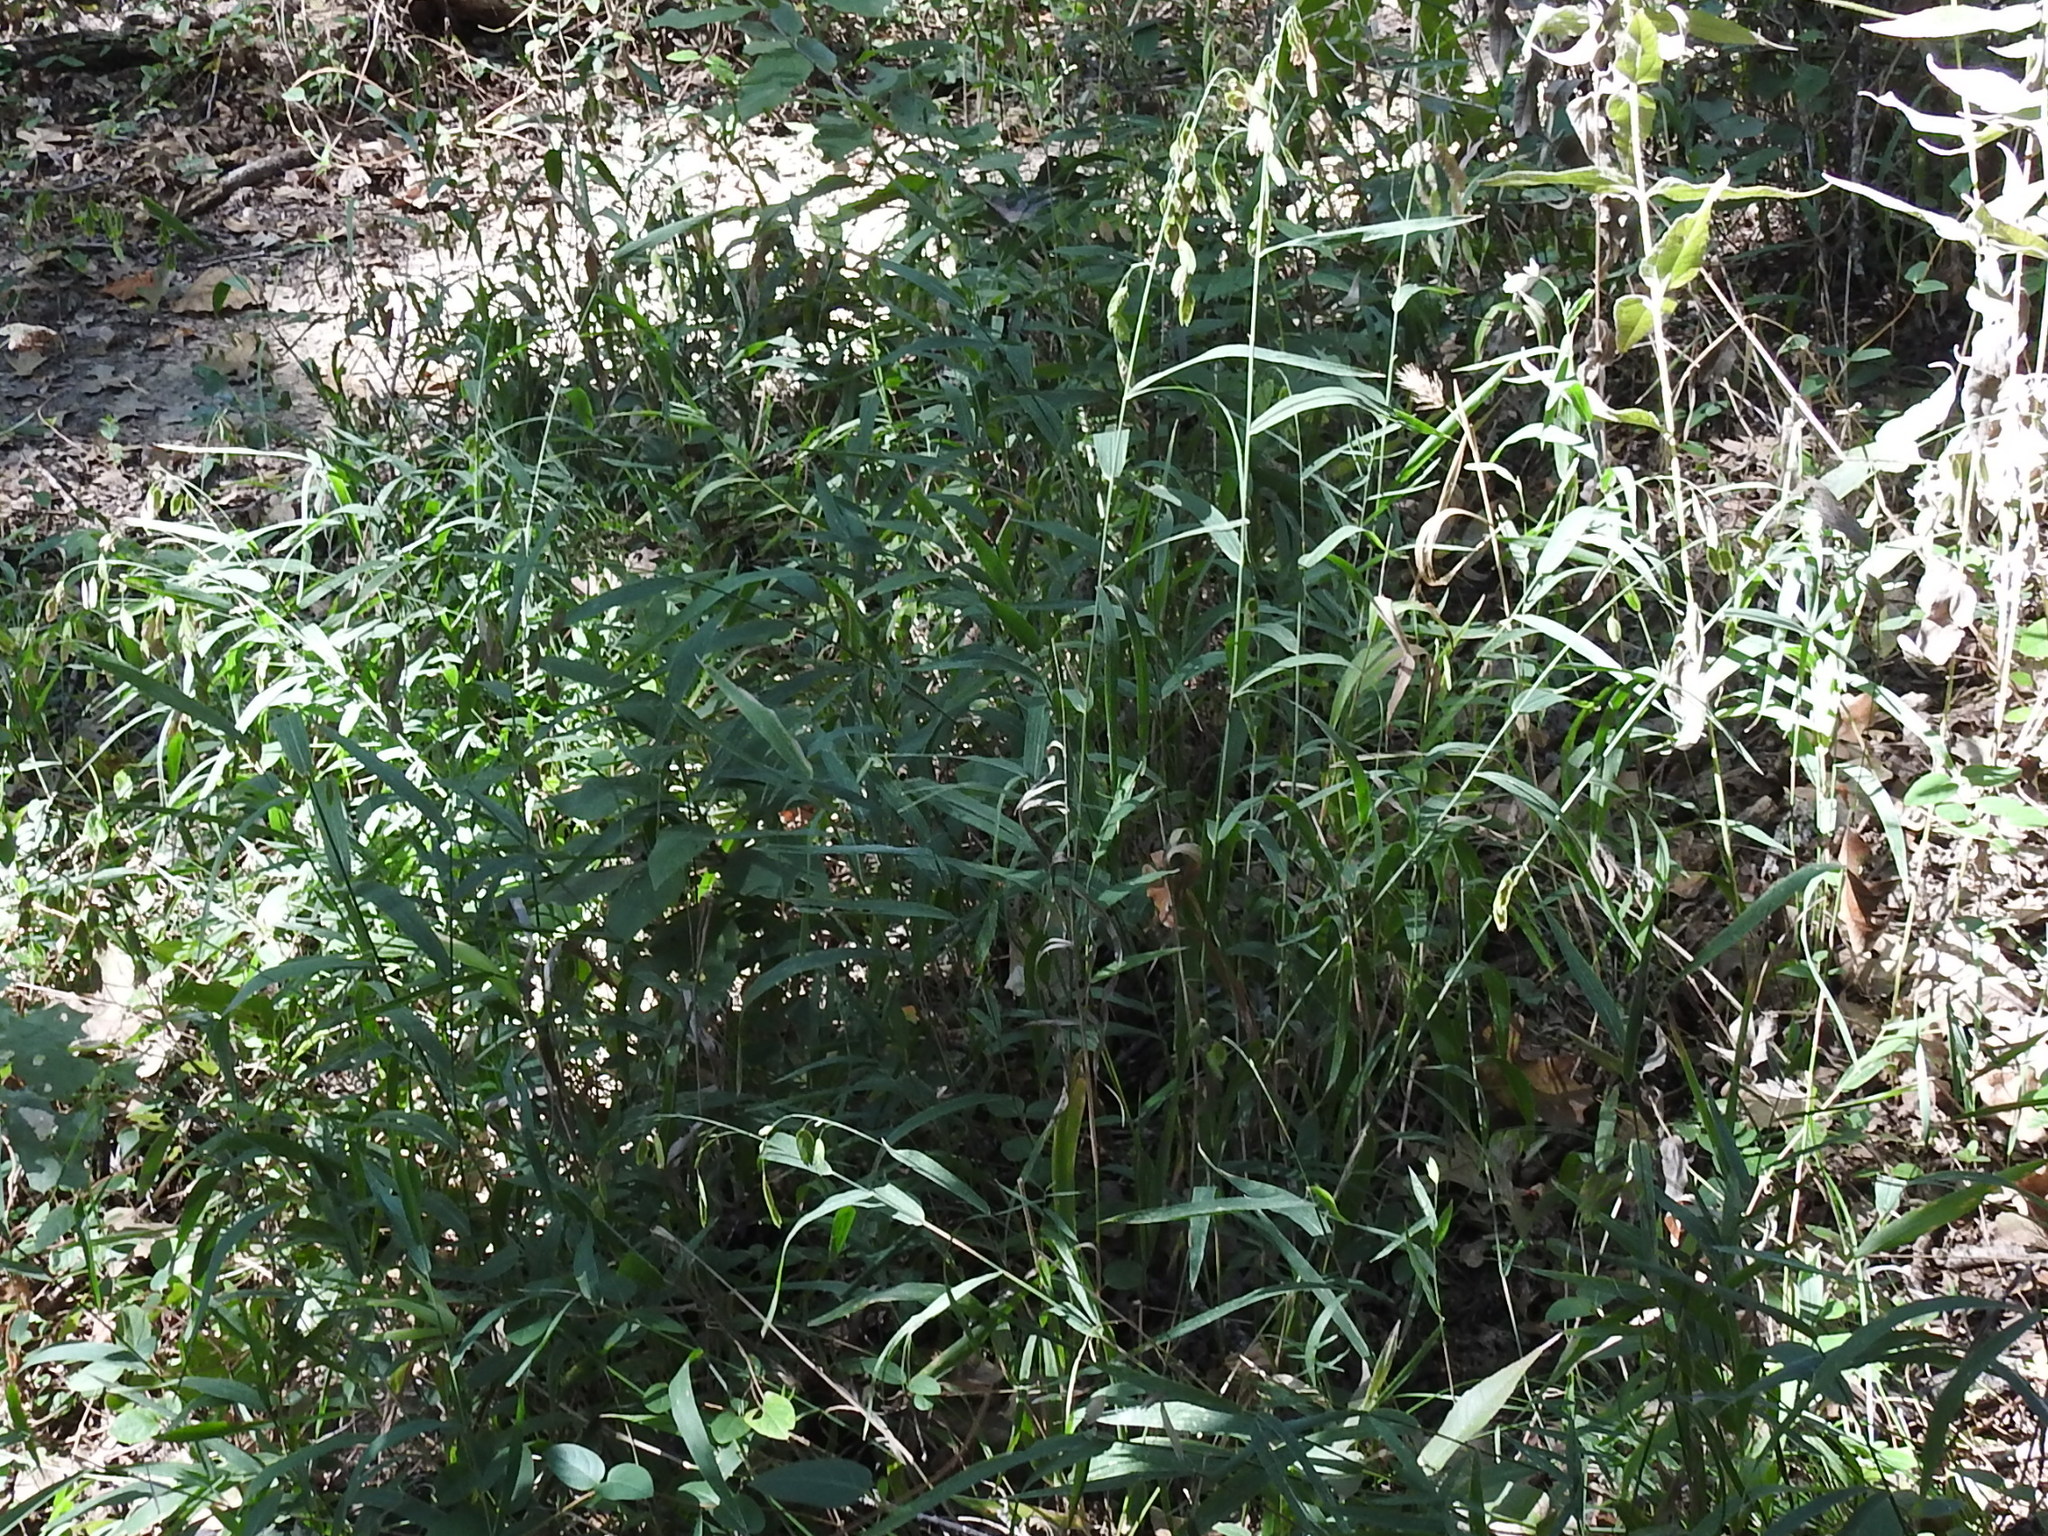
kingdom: Plantae
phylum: Tracheophyta
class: Liliopsida
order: Poales
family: Poaceae
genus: Chasmanthium
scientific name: Chasmanthium latifolium
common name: Broad-leaved chasmanthium
